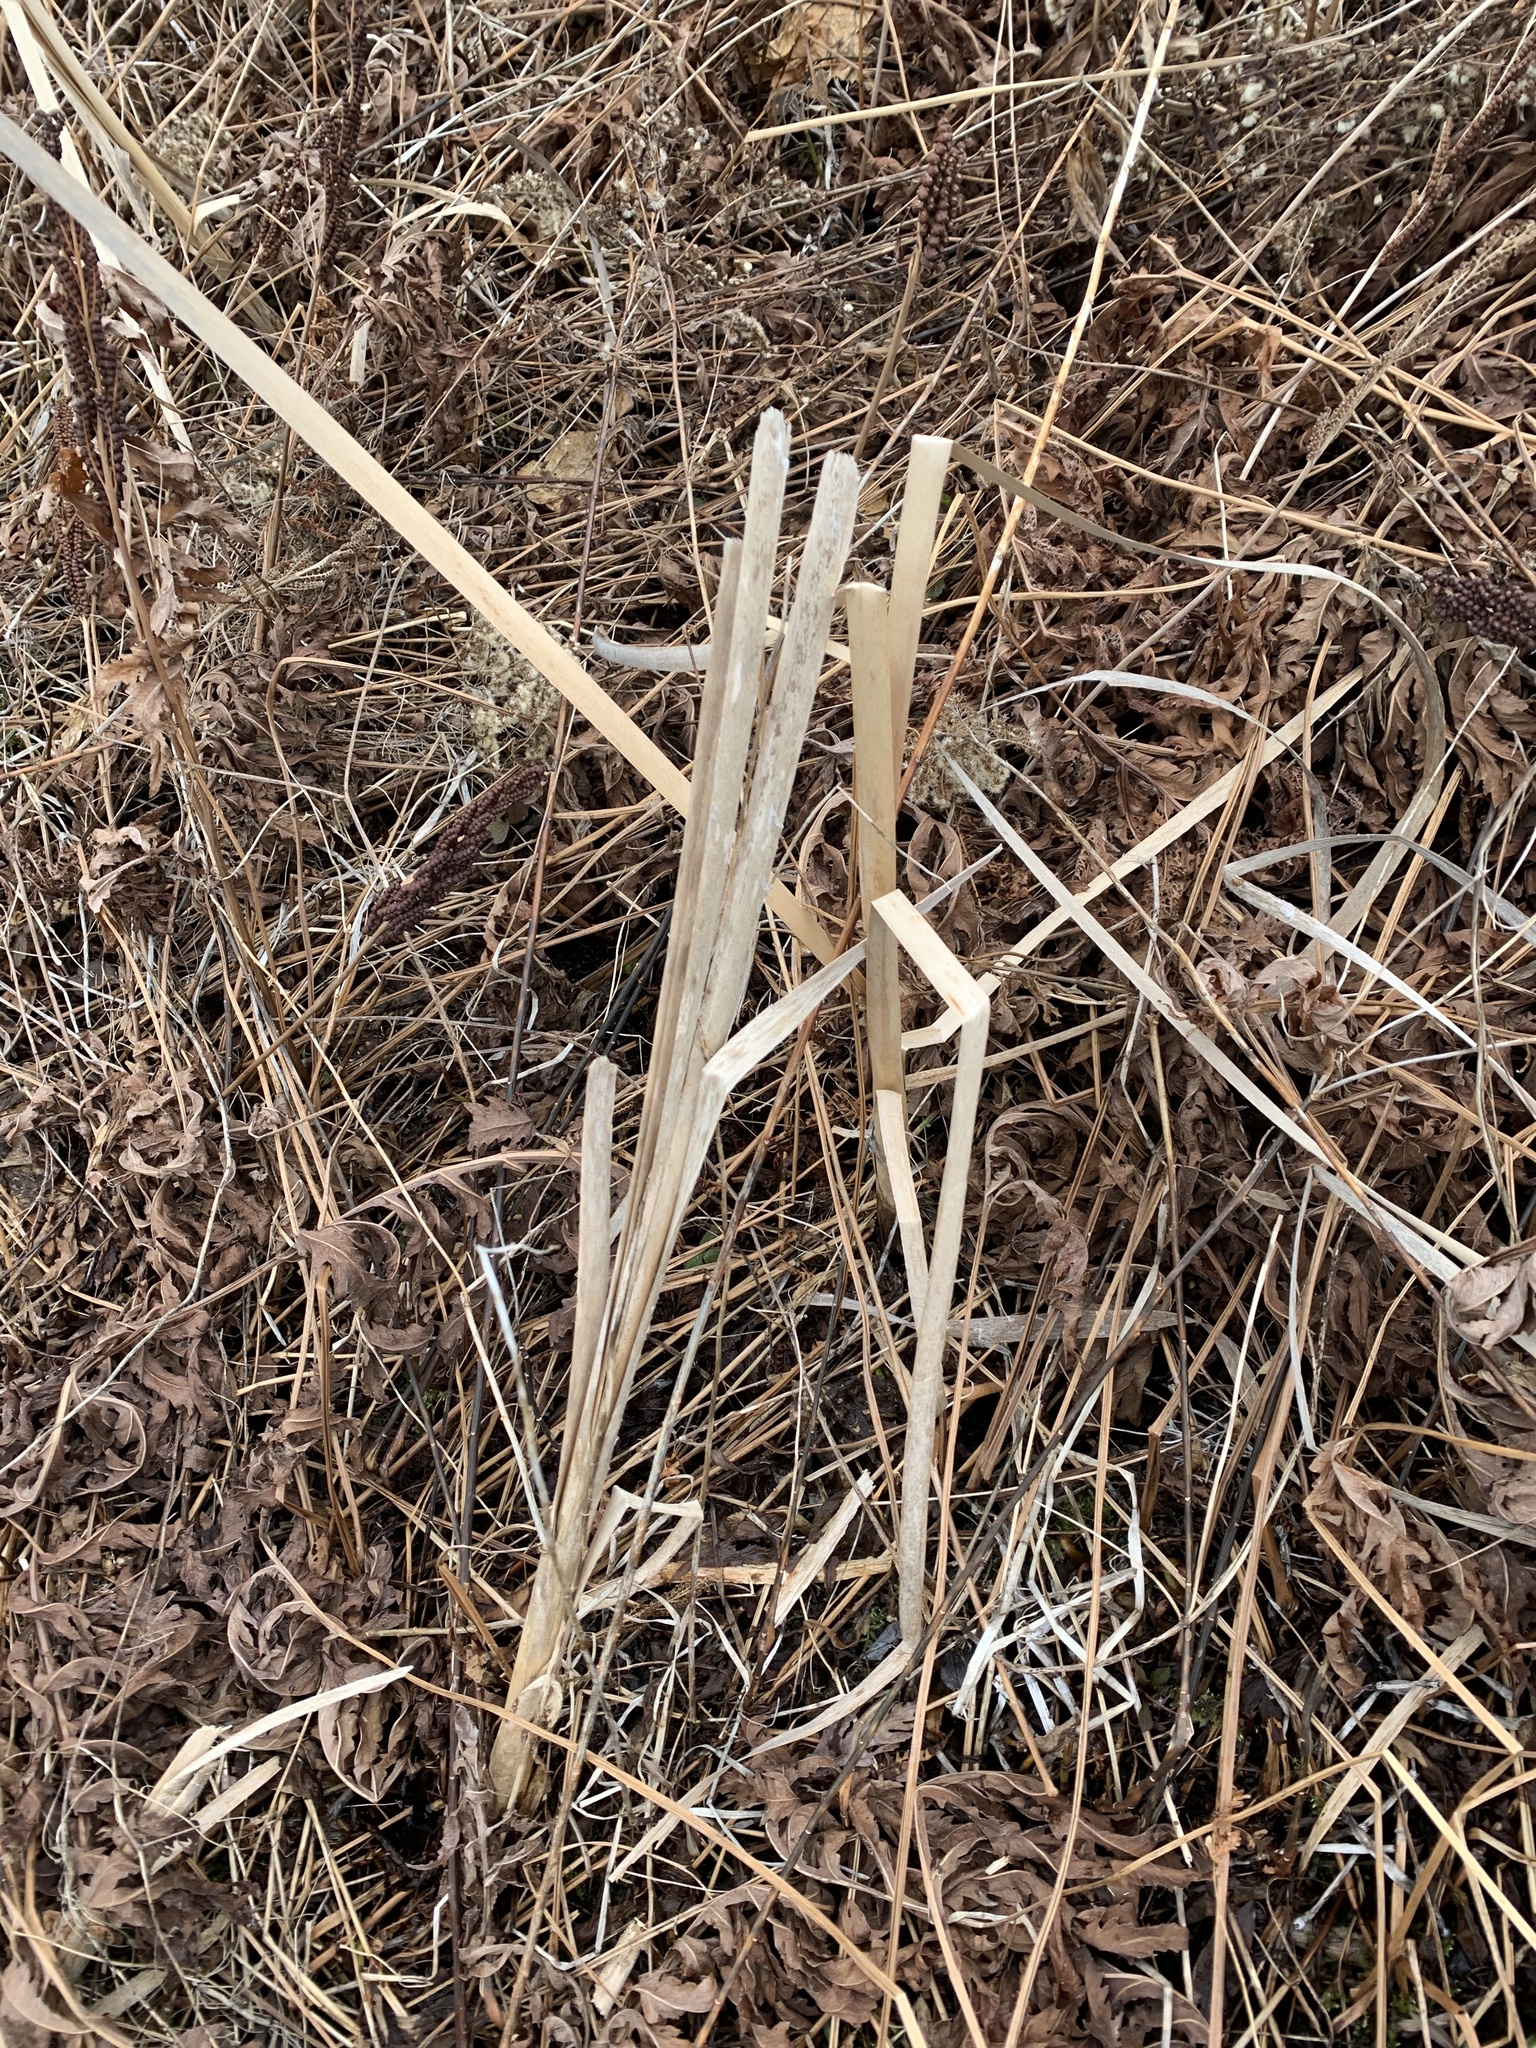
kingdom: Plantae
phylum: Tracheophyta
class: Liliopsida
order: Poales
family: Typhaceae
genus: Typha
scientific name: Typha
